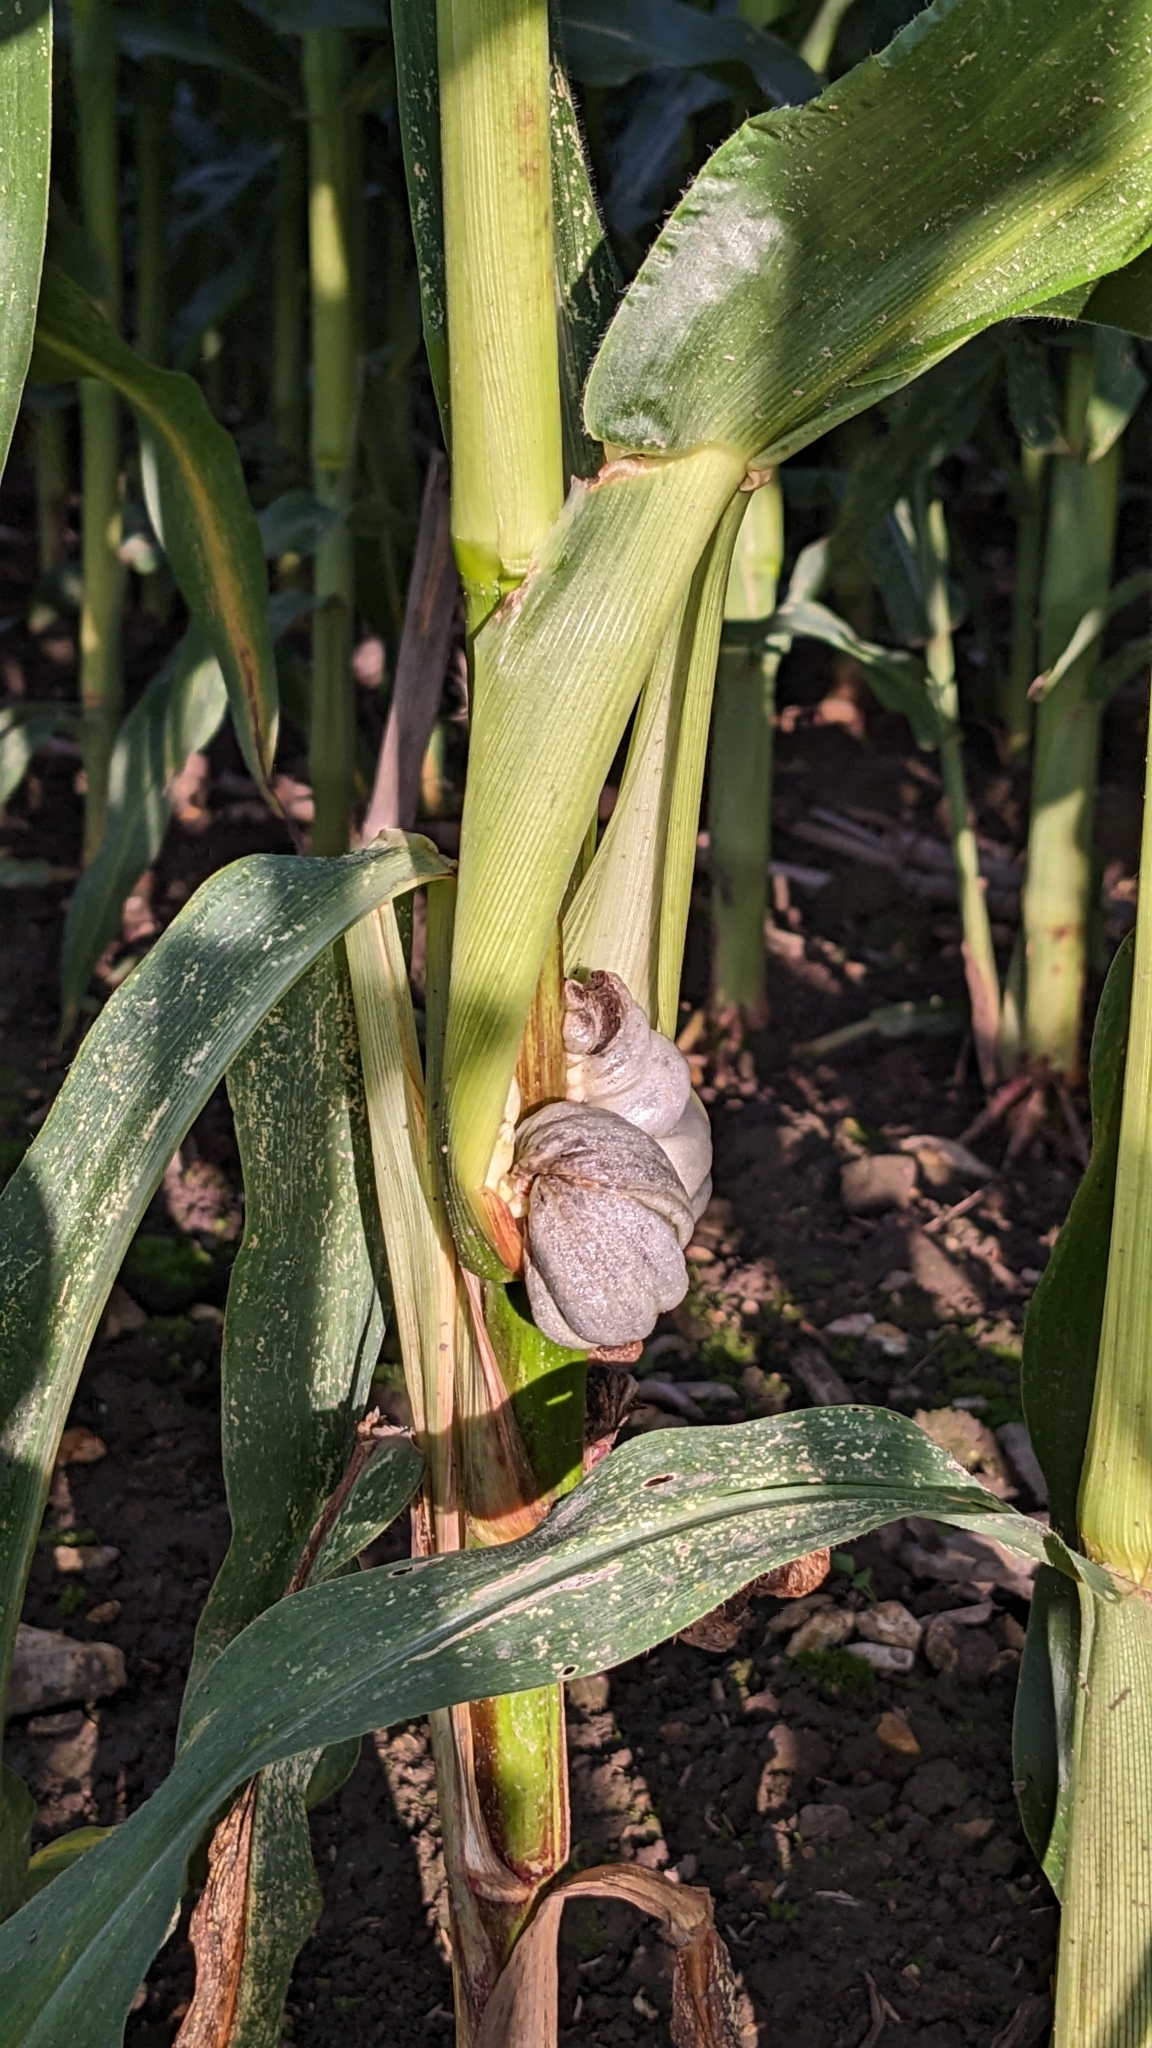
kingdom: Fungi
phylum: Basidiomycota
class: Ustilaginomycetes
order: Ustilaginales
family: Ustilaginaceae
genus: Mycosarcoma
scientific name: Mycosarcoma maydis
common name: Corn smut
